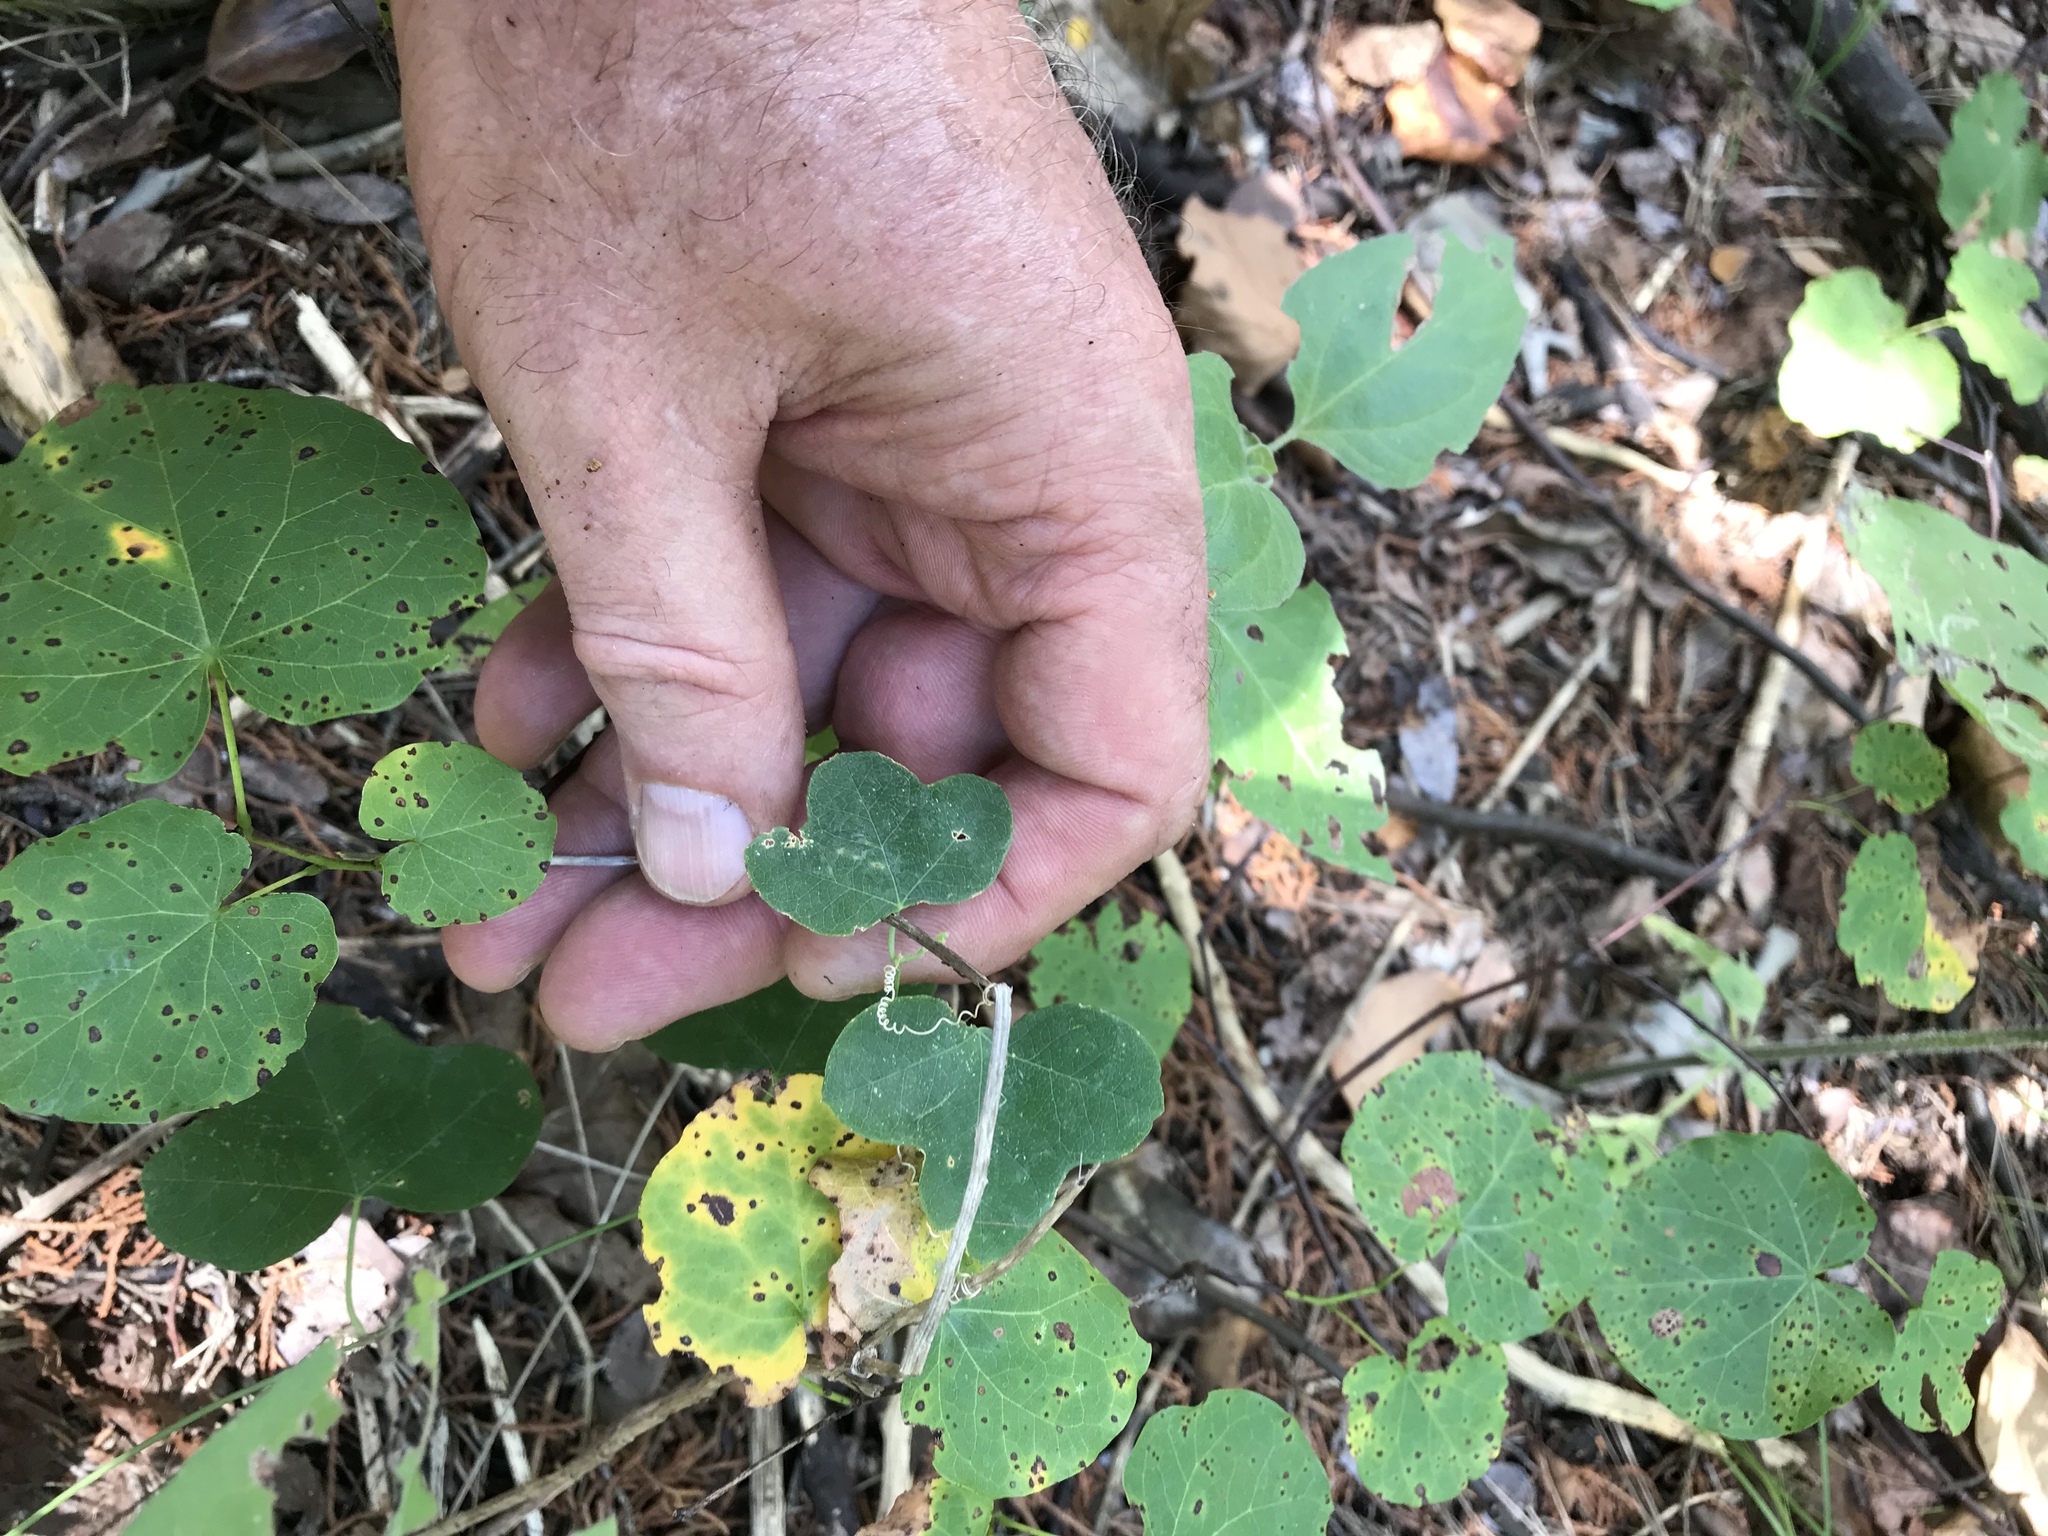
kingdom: Plantae
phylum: Tracheophyta
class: Magnoliopsida
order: Malpighiales
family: Passifloraceae
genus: Passiflora
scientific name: Passiflora lutea
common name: Yellow passionflower
